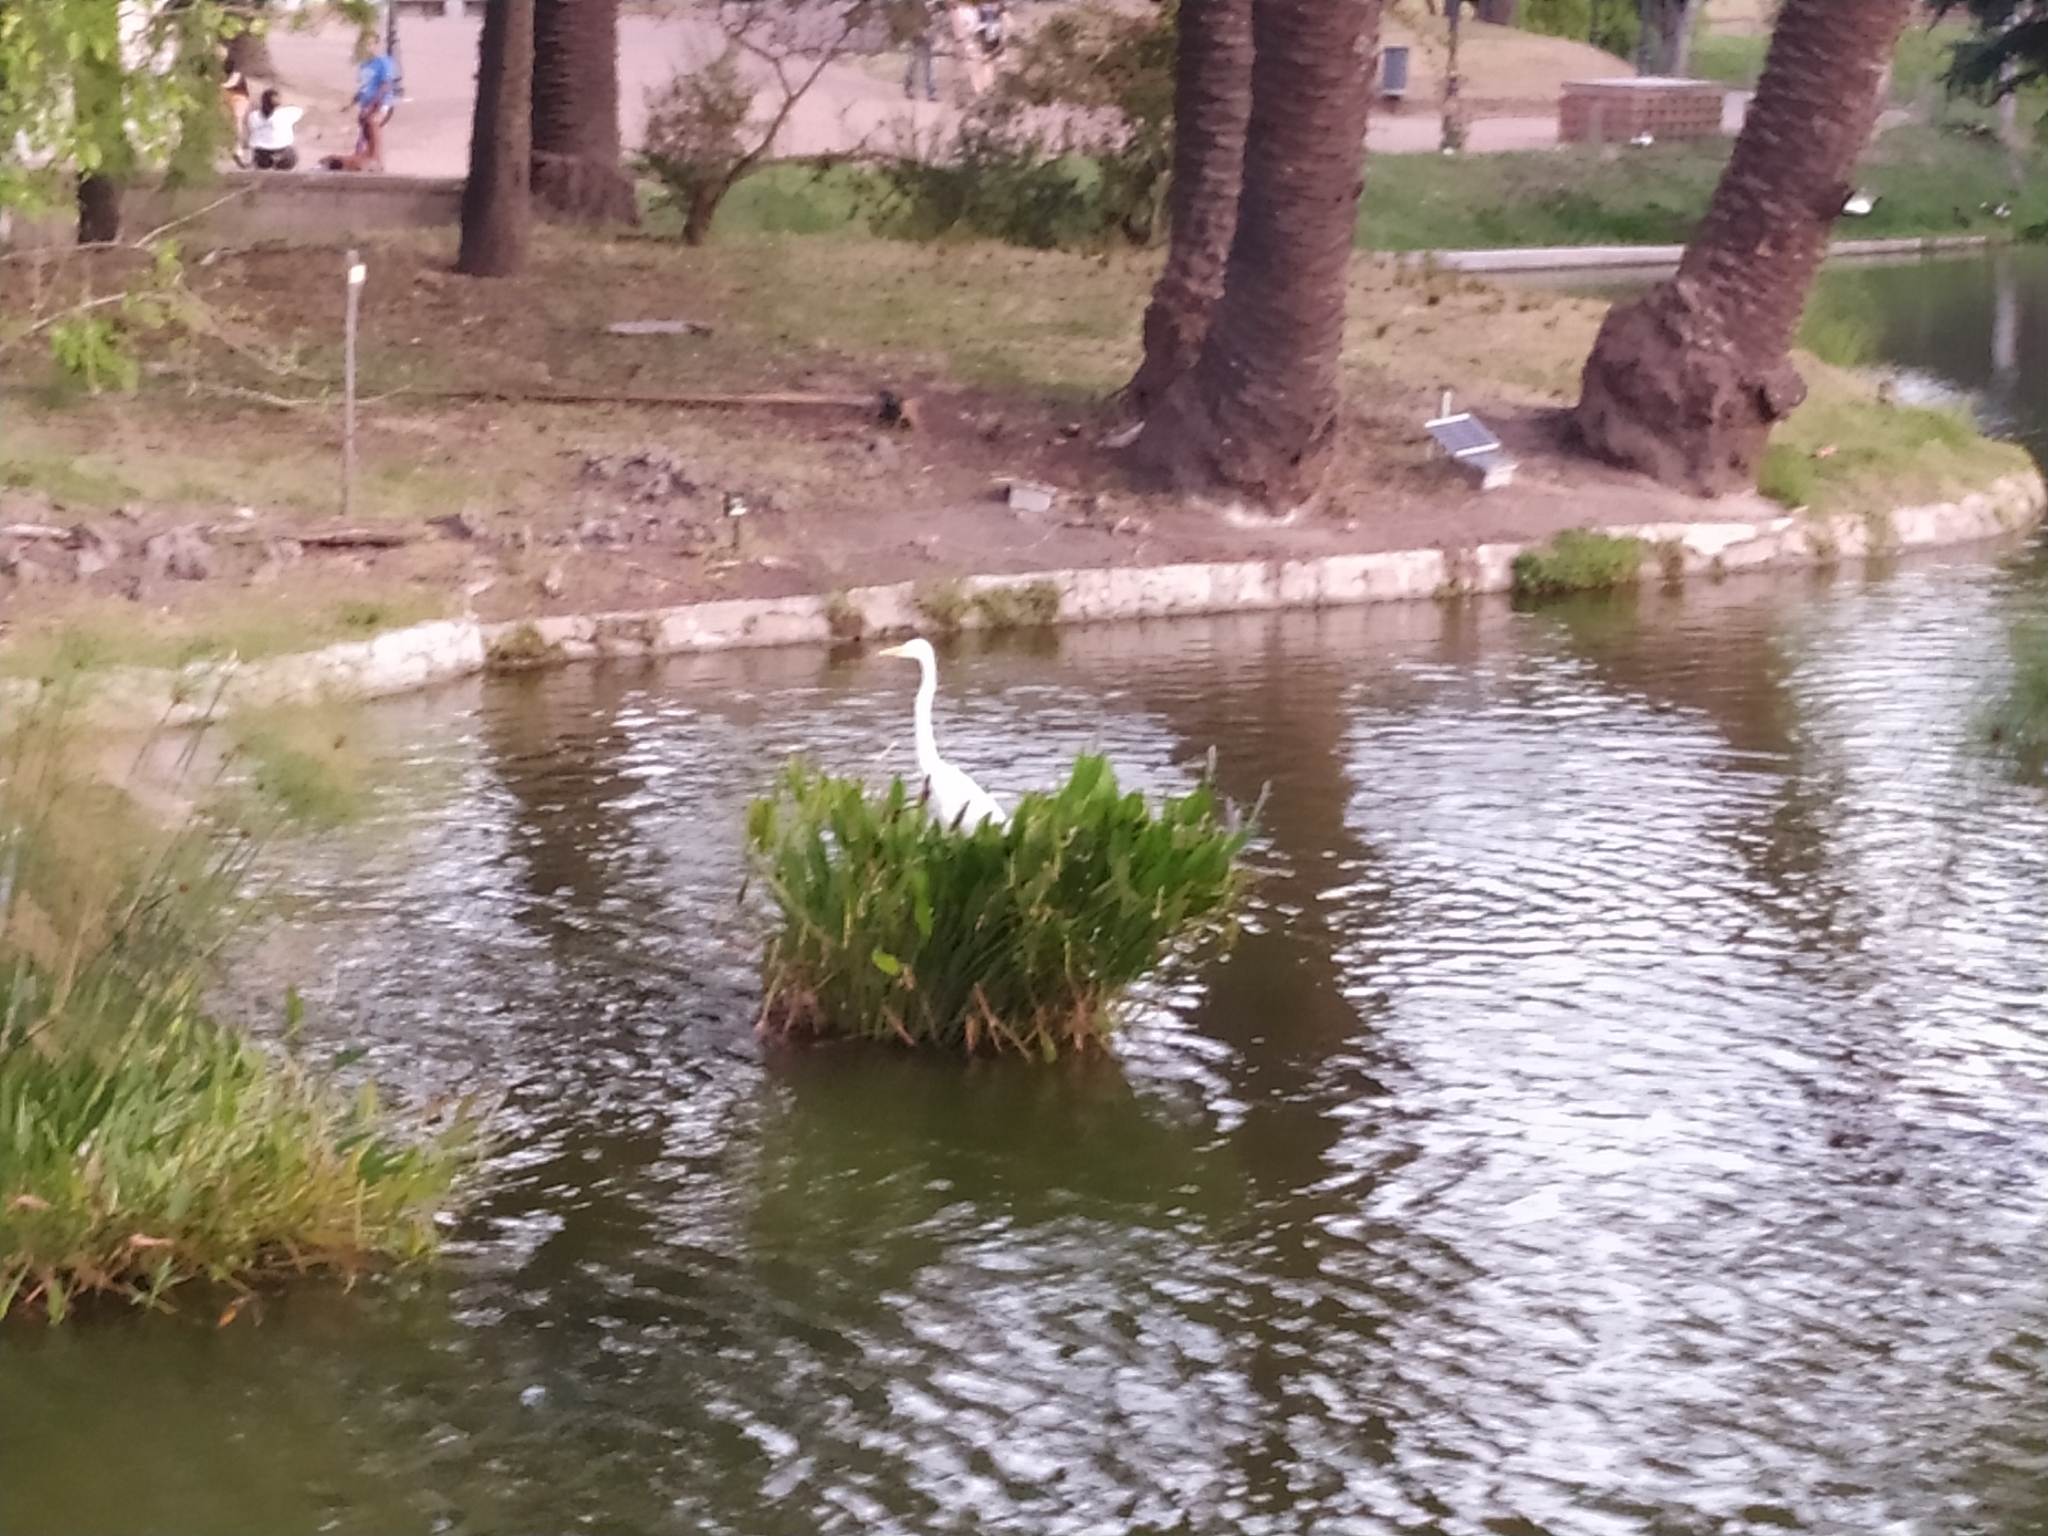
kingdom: Animalia
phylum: Chordata
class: Aves
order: Pelecaniformes
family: Ardeidae
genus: Ardea
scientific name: Ardea alba
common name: Great egret
